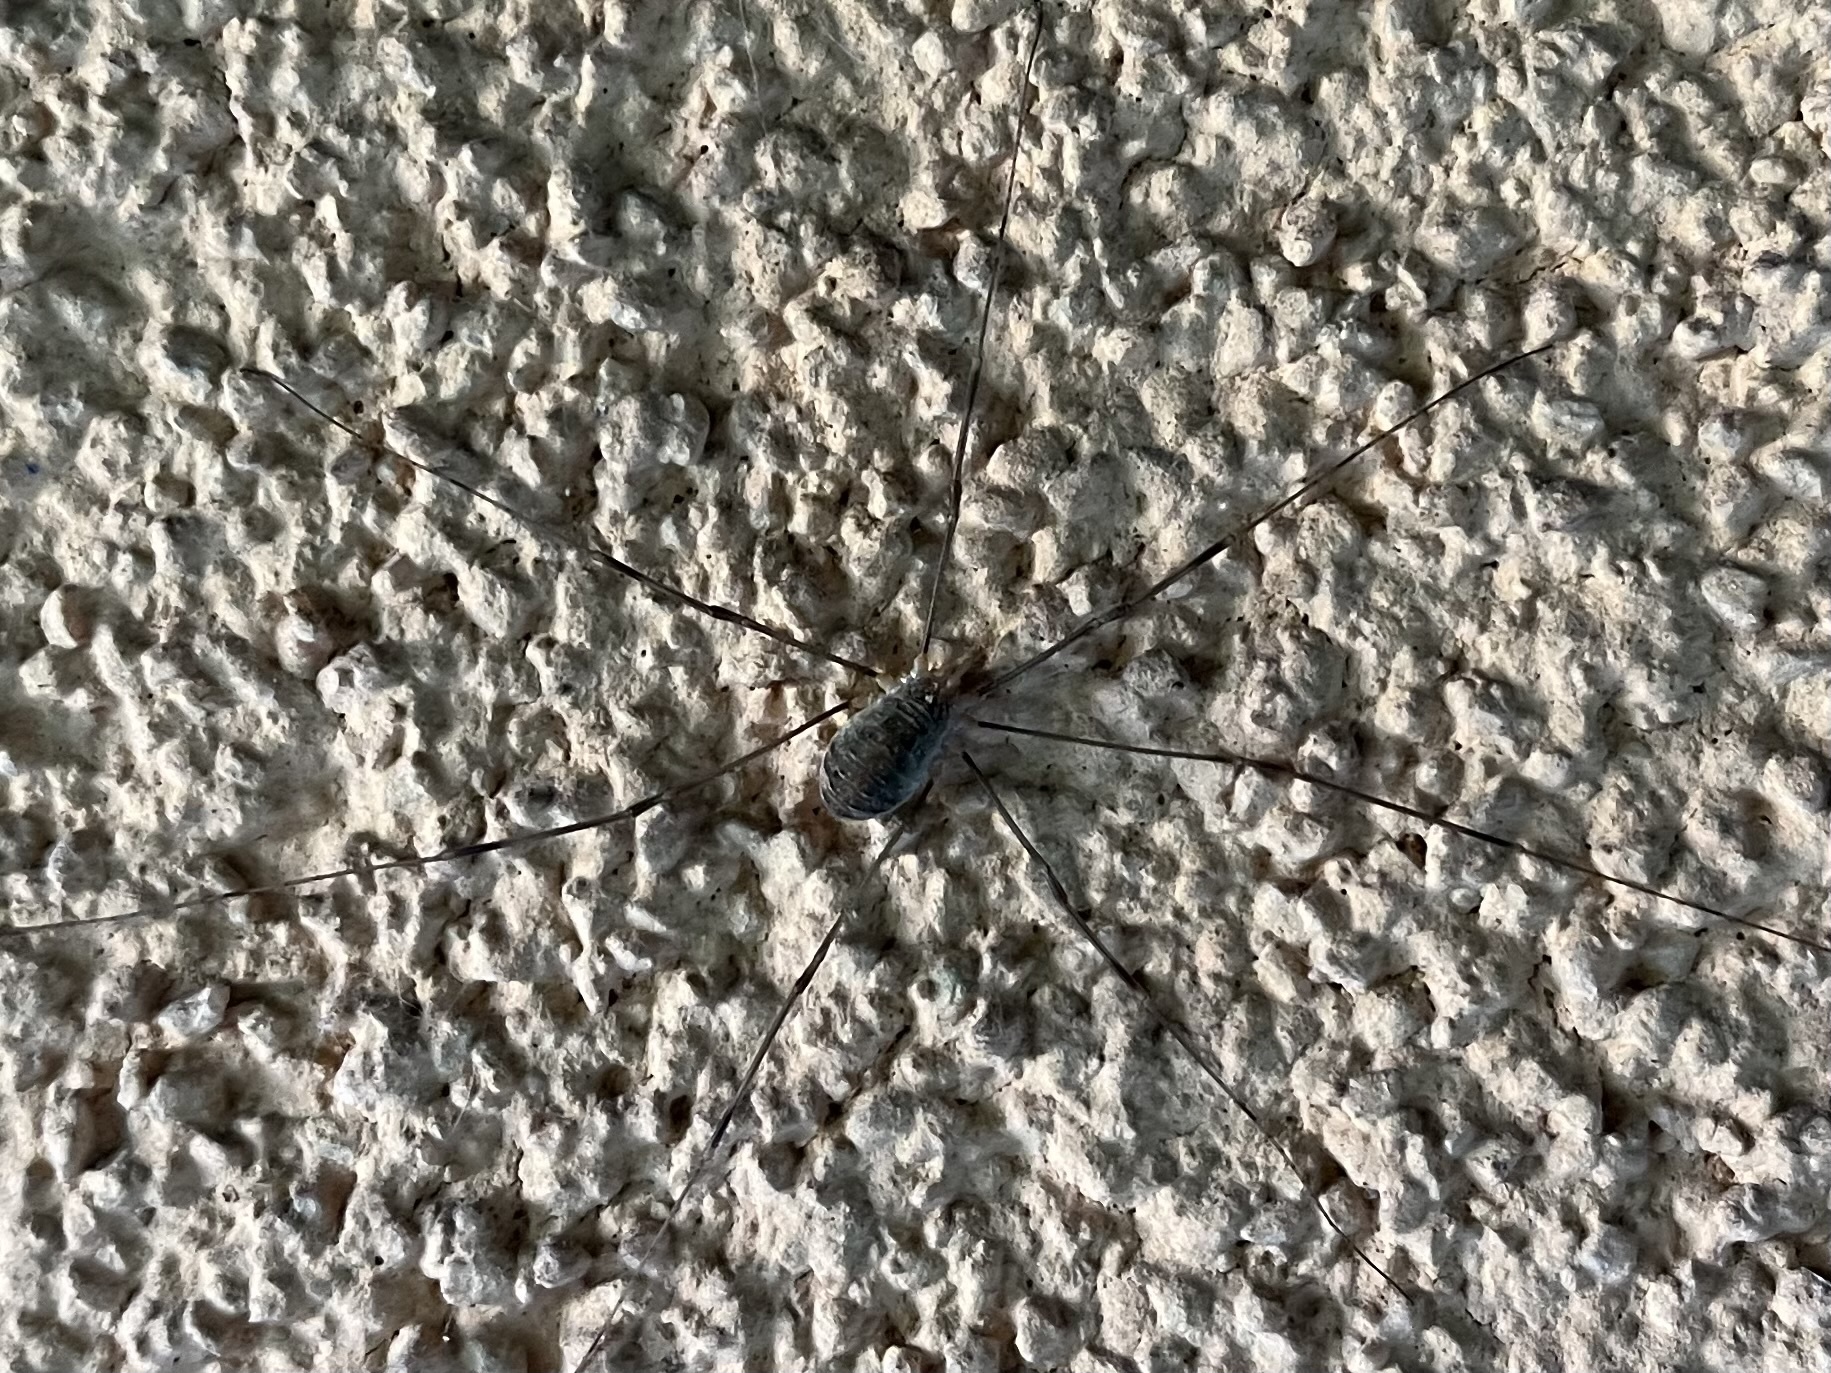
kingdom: Animalia
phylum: Arthropoda
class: Arachnida
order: Opiliones
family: Phalangiidae
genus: Opilio
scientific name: Opilio canestrinii
